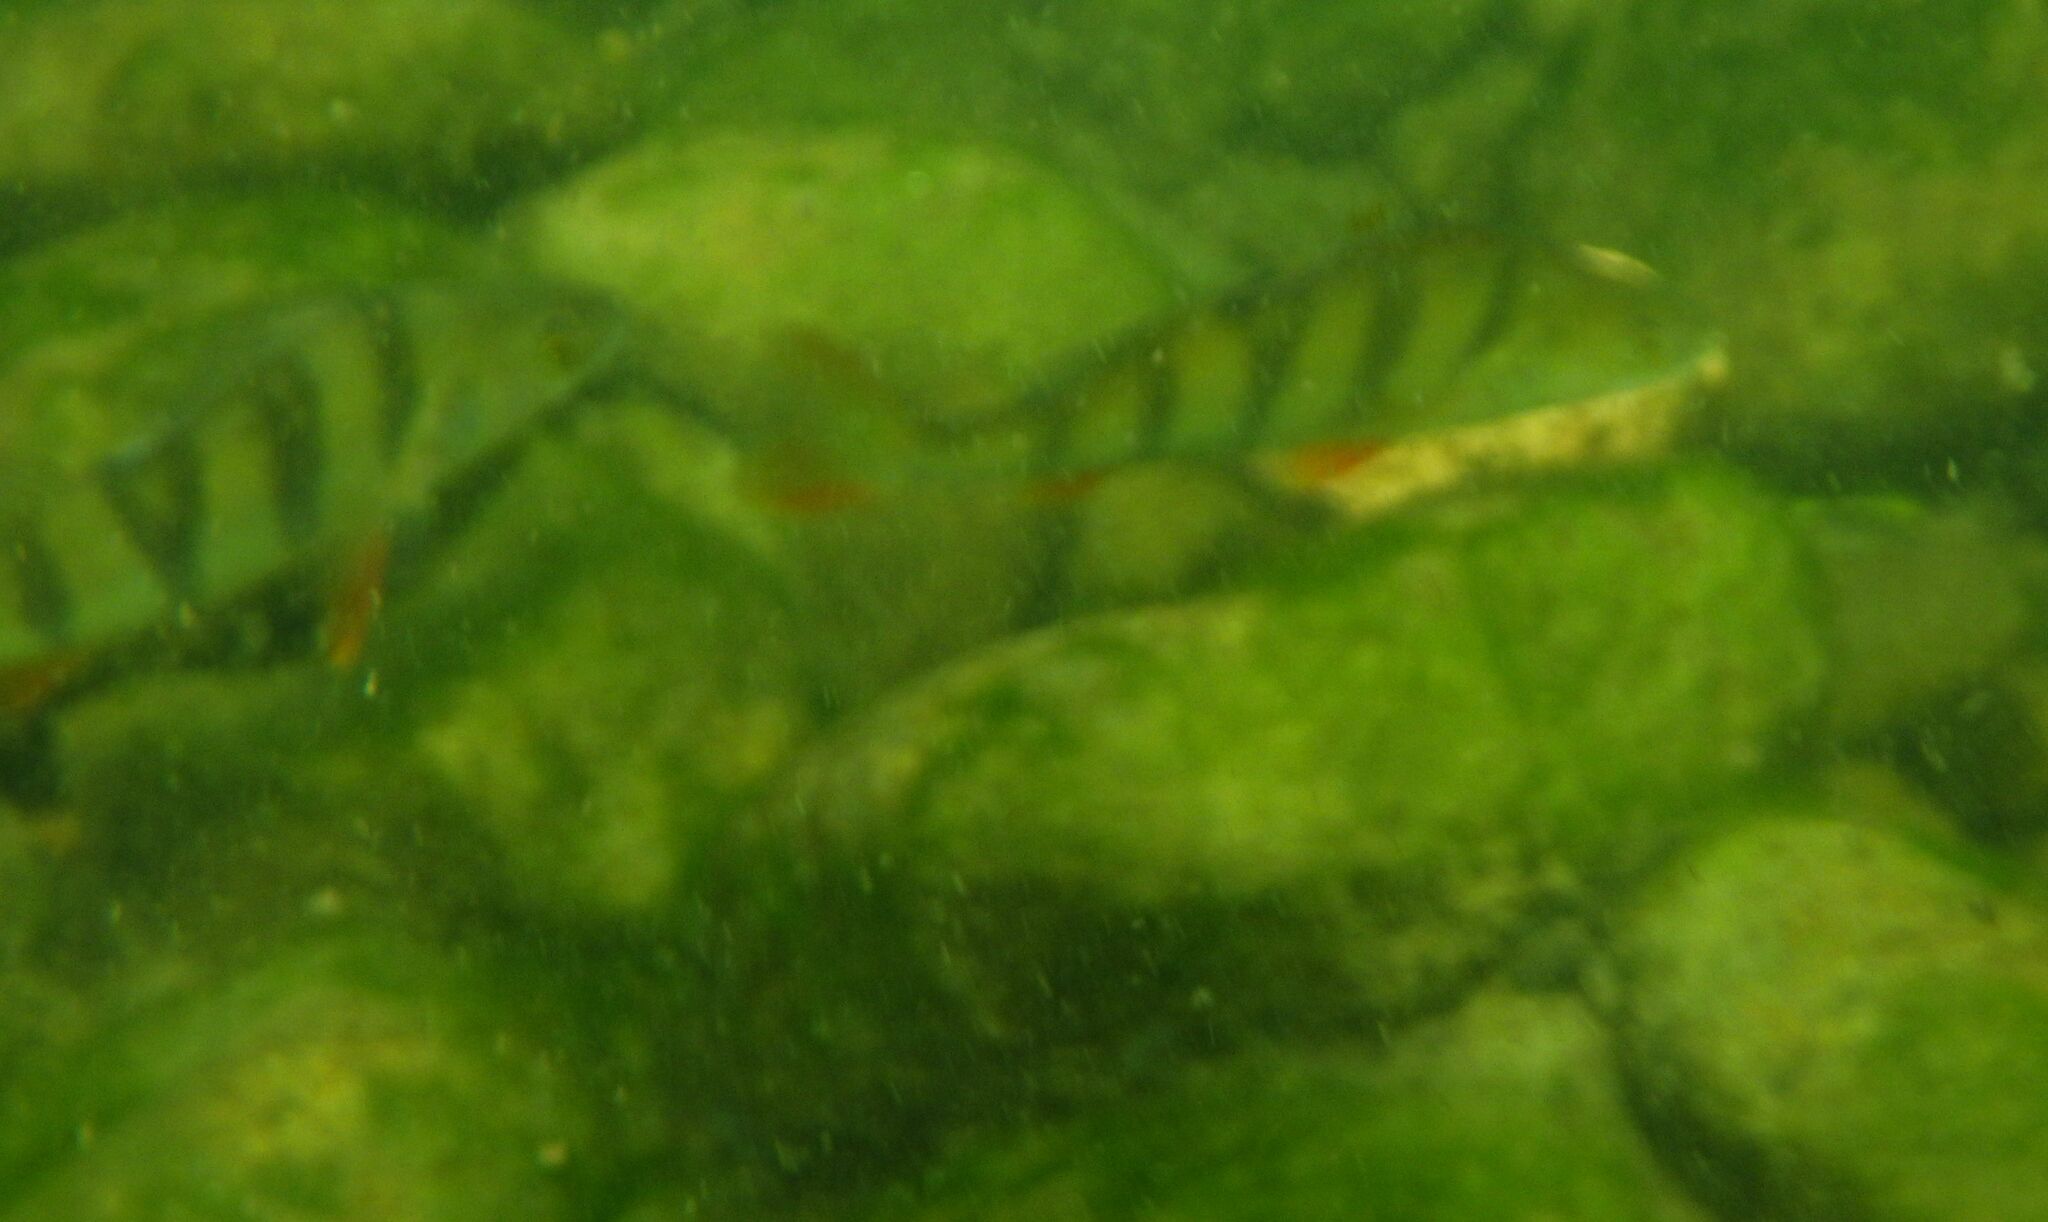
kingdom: Animalia
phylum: Chordata
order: Perciformes
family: Percidae
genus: Perca
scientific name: Perca fluviatilis
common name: Perch
